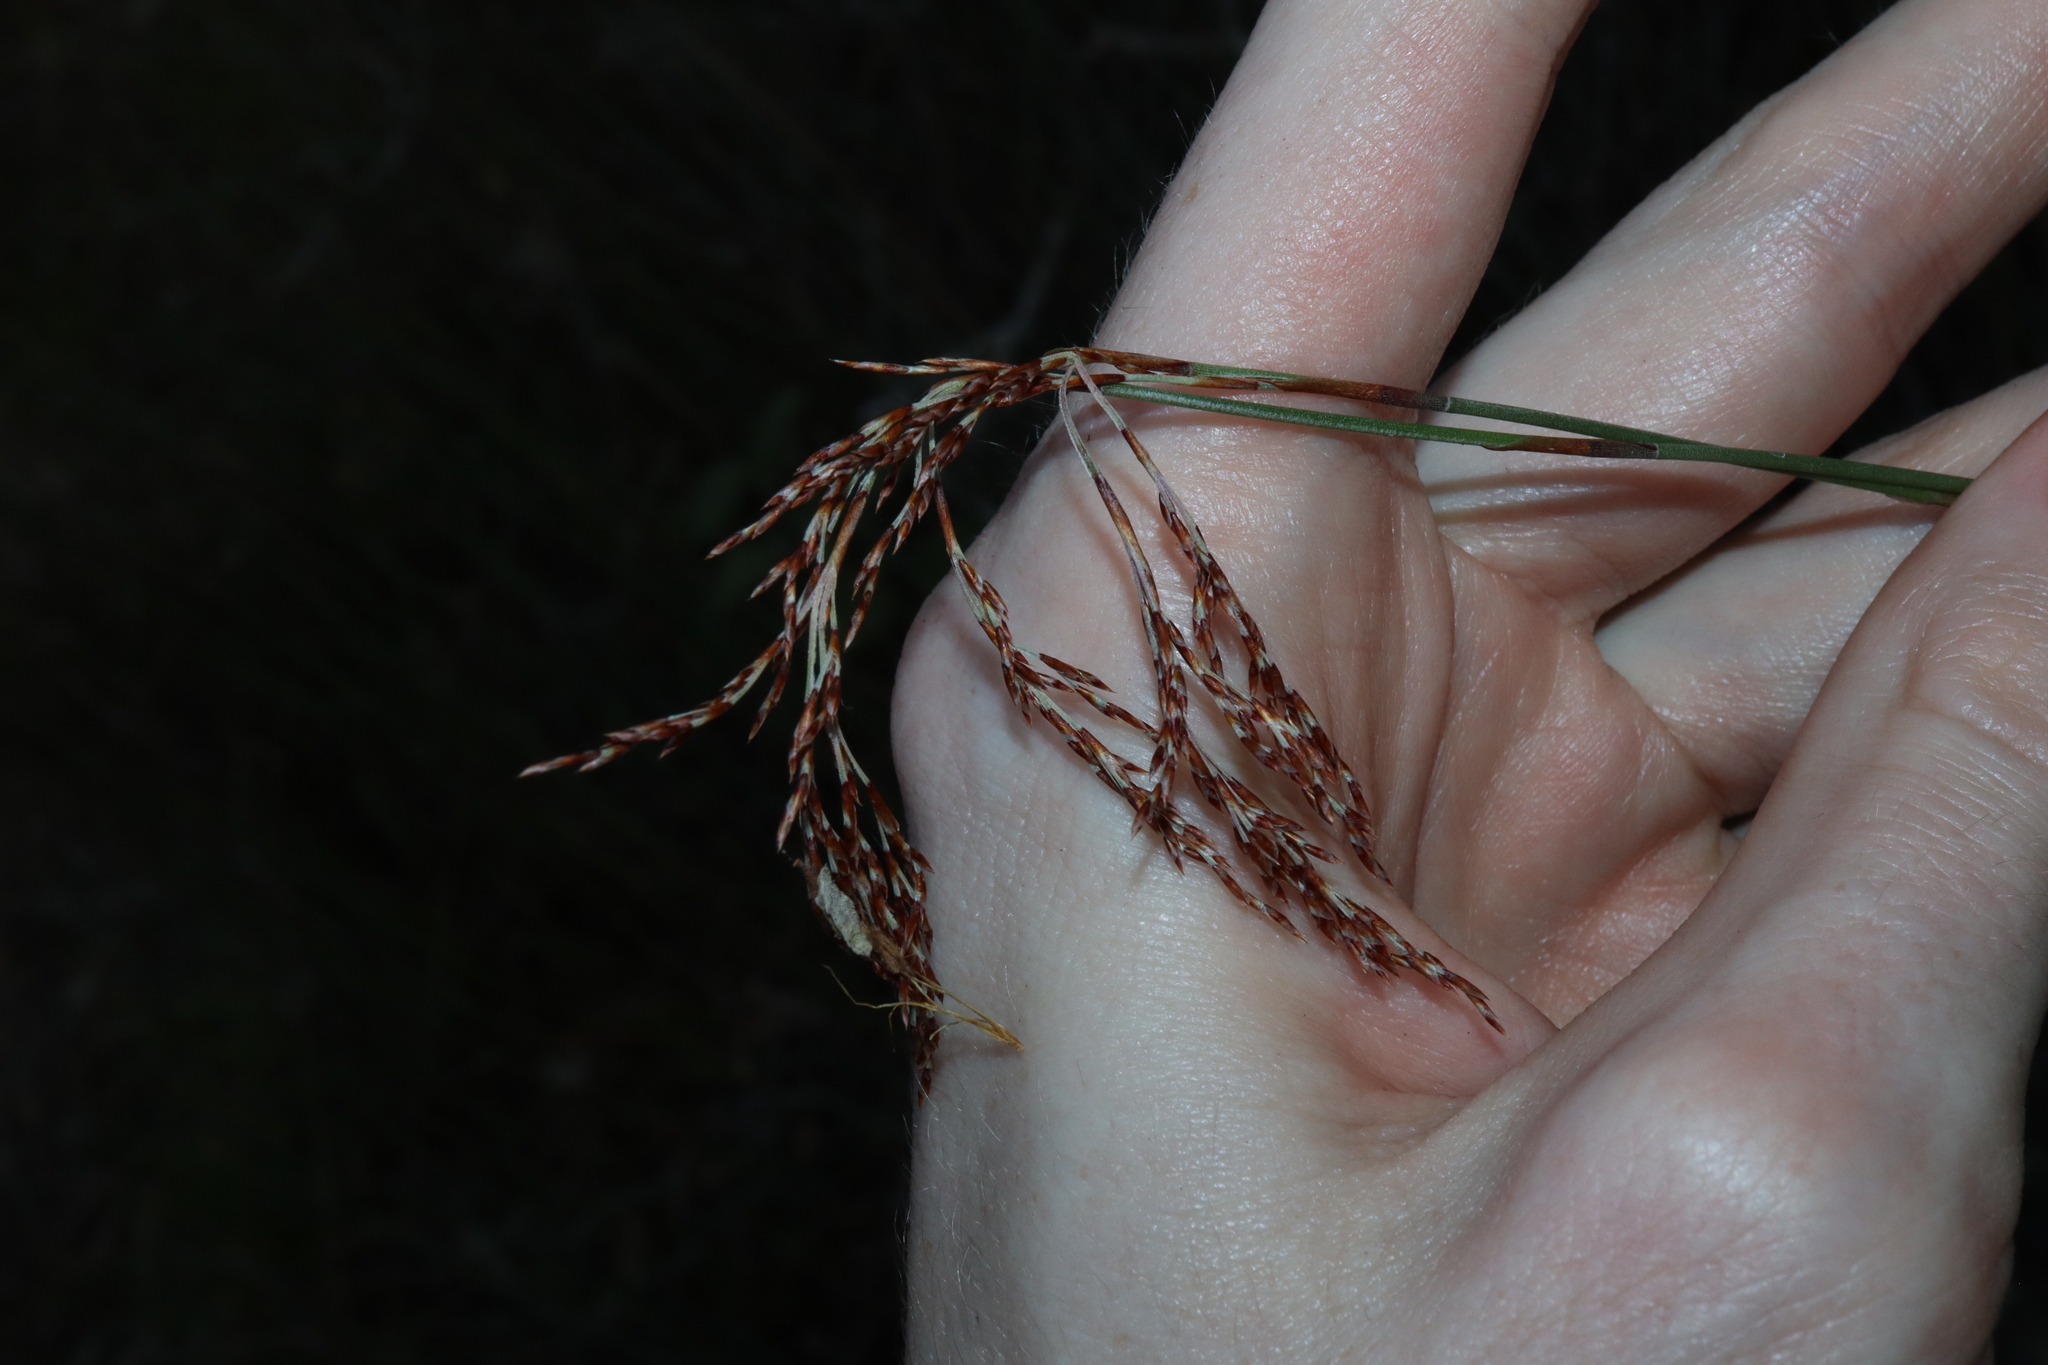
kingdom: Plantae
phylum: Tracheophyta
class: Liliopsida
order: Poales
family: Restionaceae
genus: Leptocarpus
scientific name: Leptocarpus tenax
